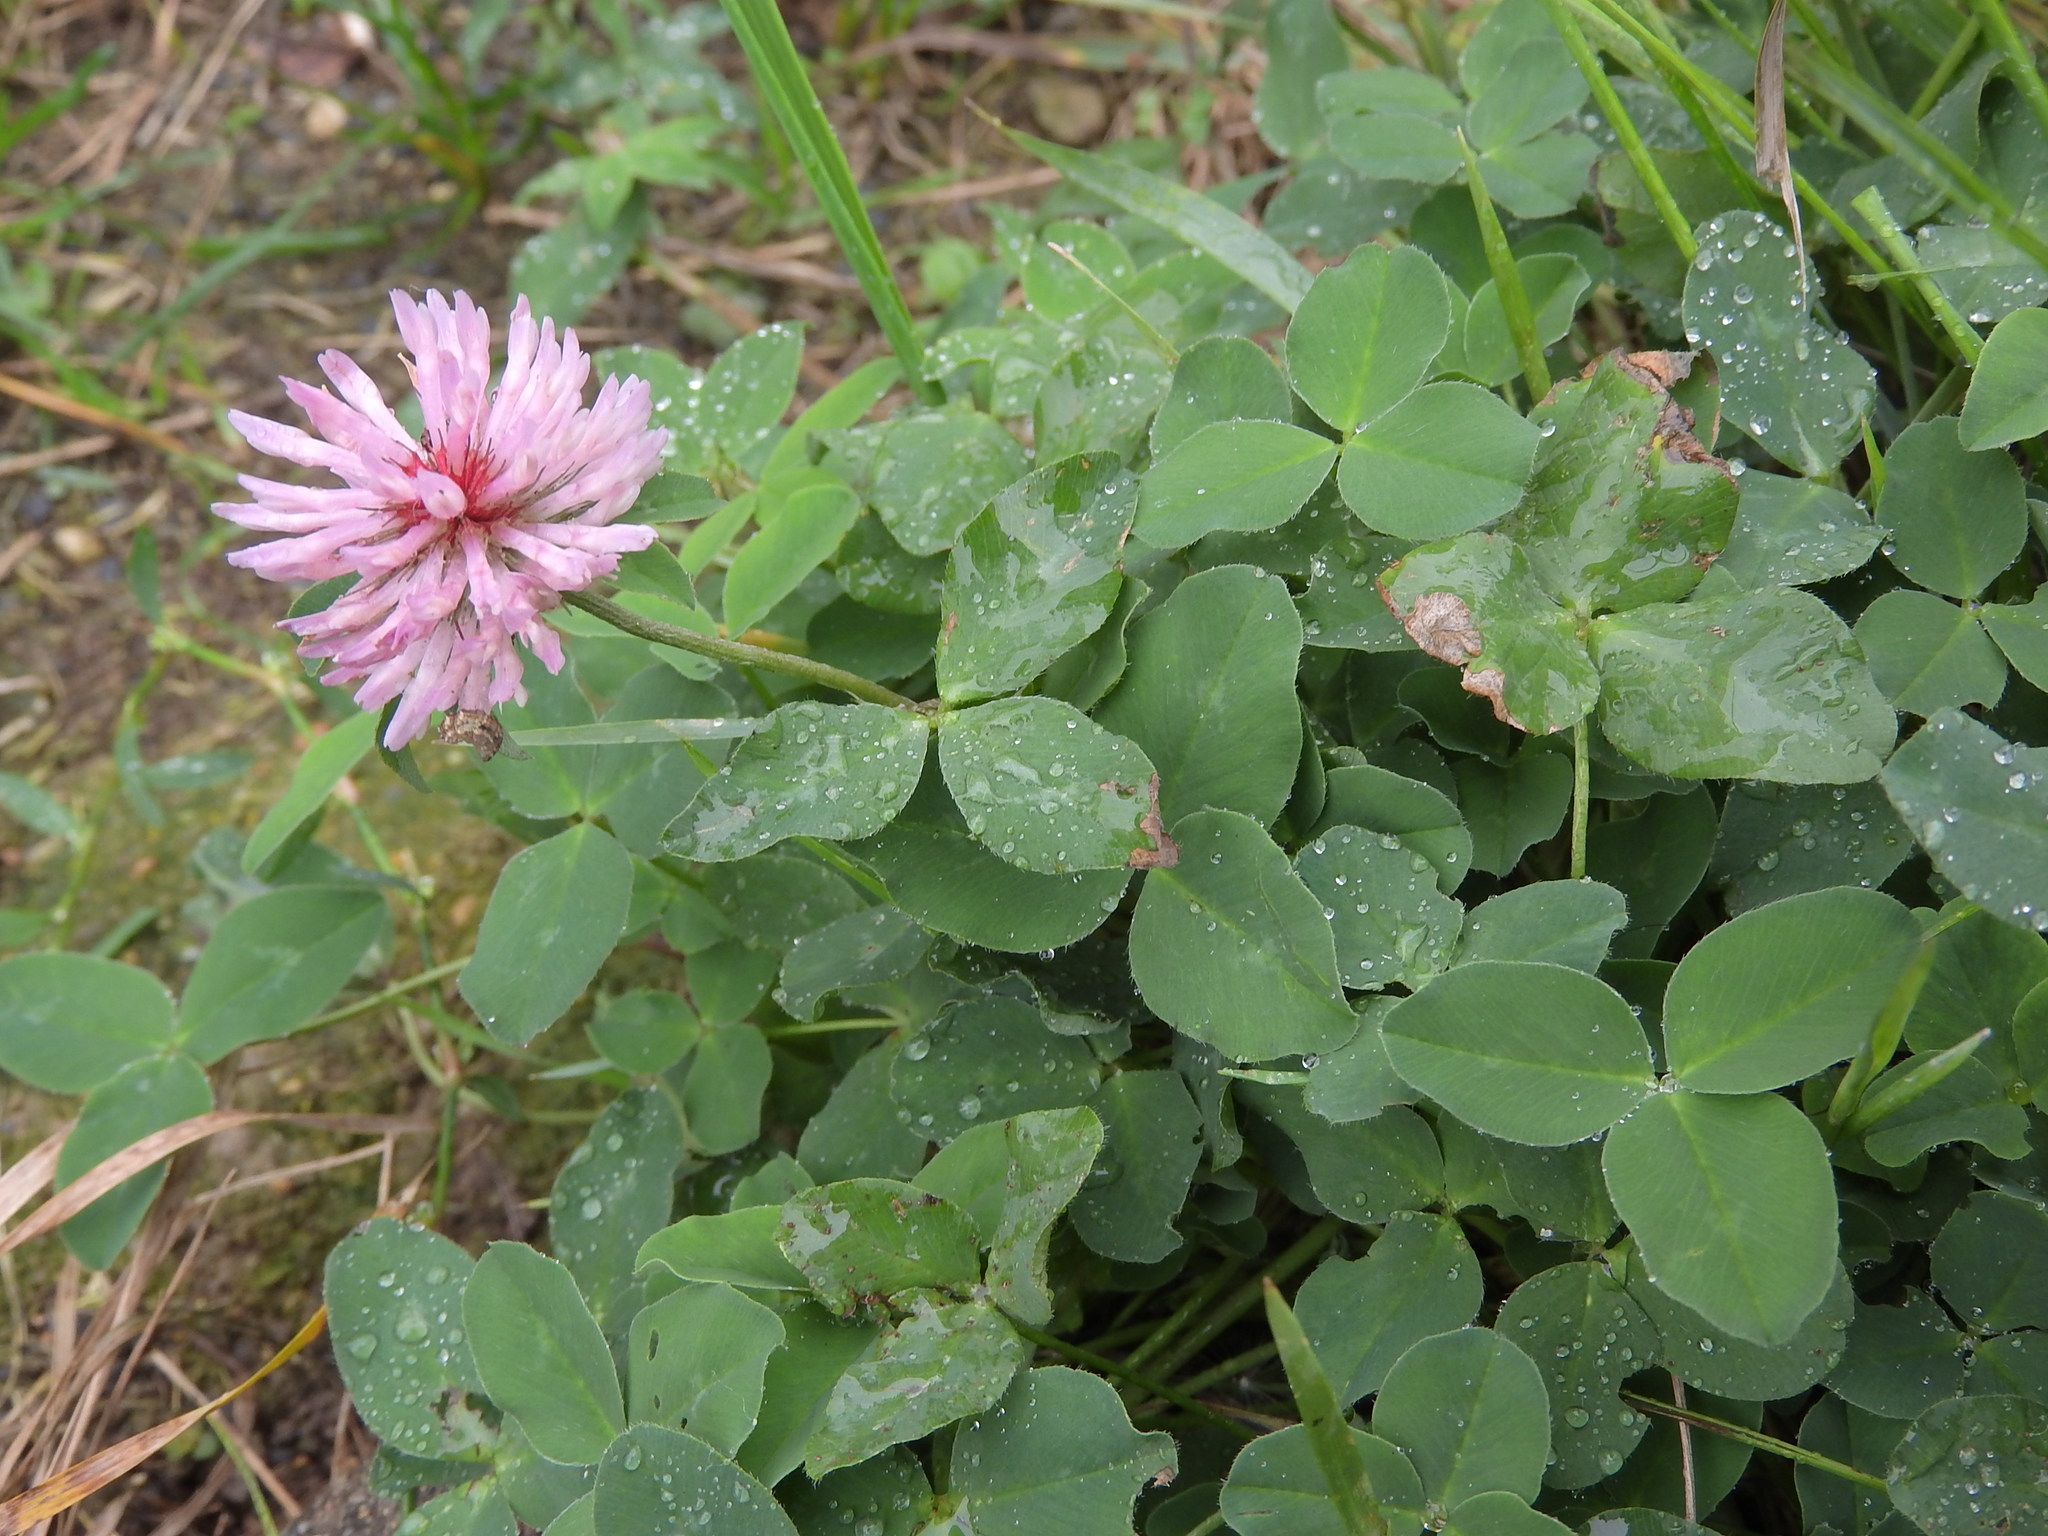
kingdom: Plantae
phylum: Tracheophyta
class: Magnoliopsida
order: Fabales
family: Fabaceae
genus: Trifolium
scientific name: Trifolium pratense
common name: Red clover
